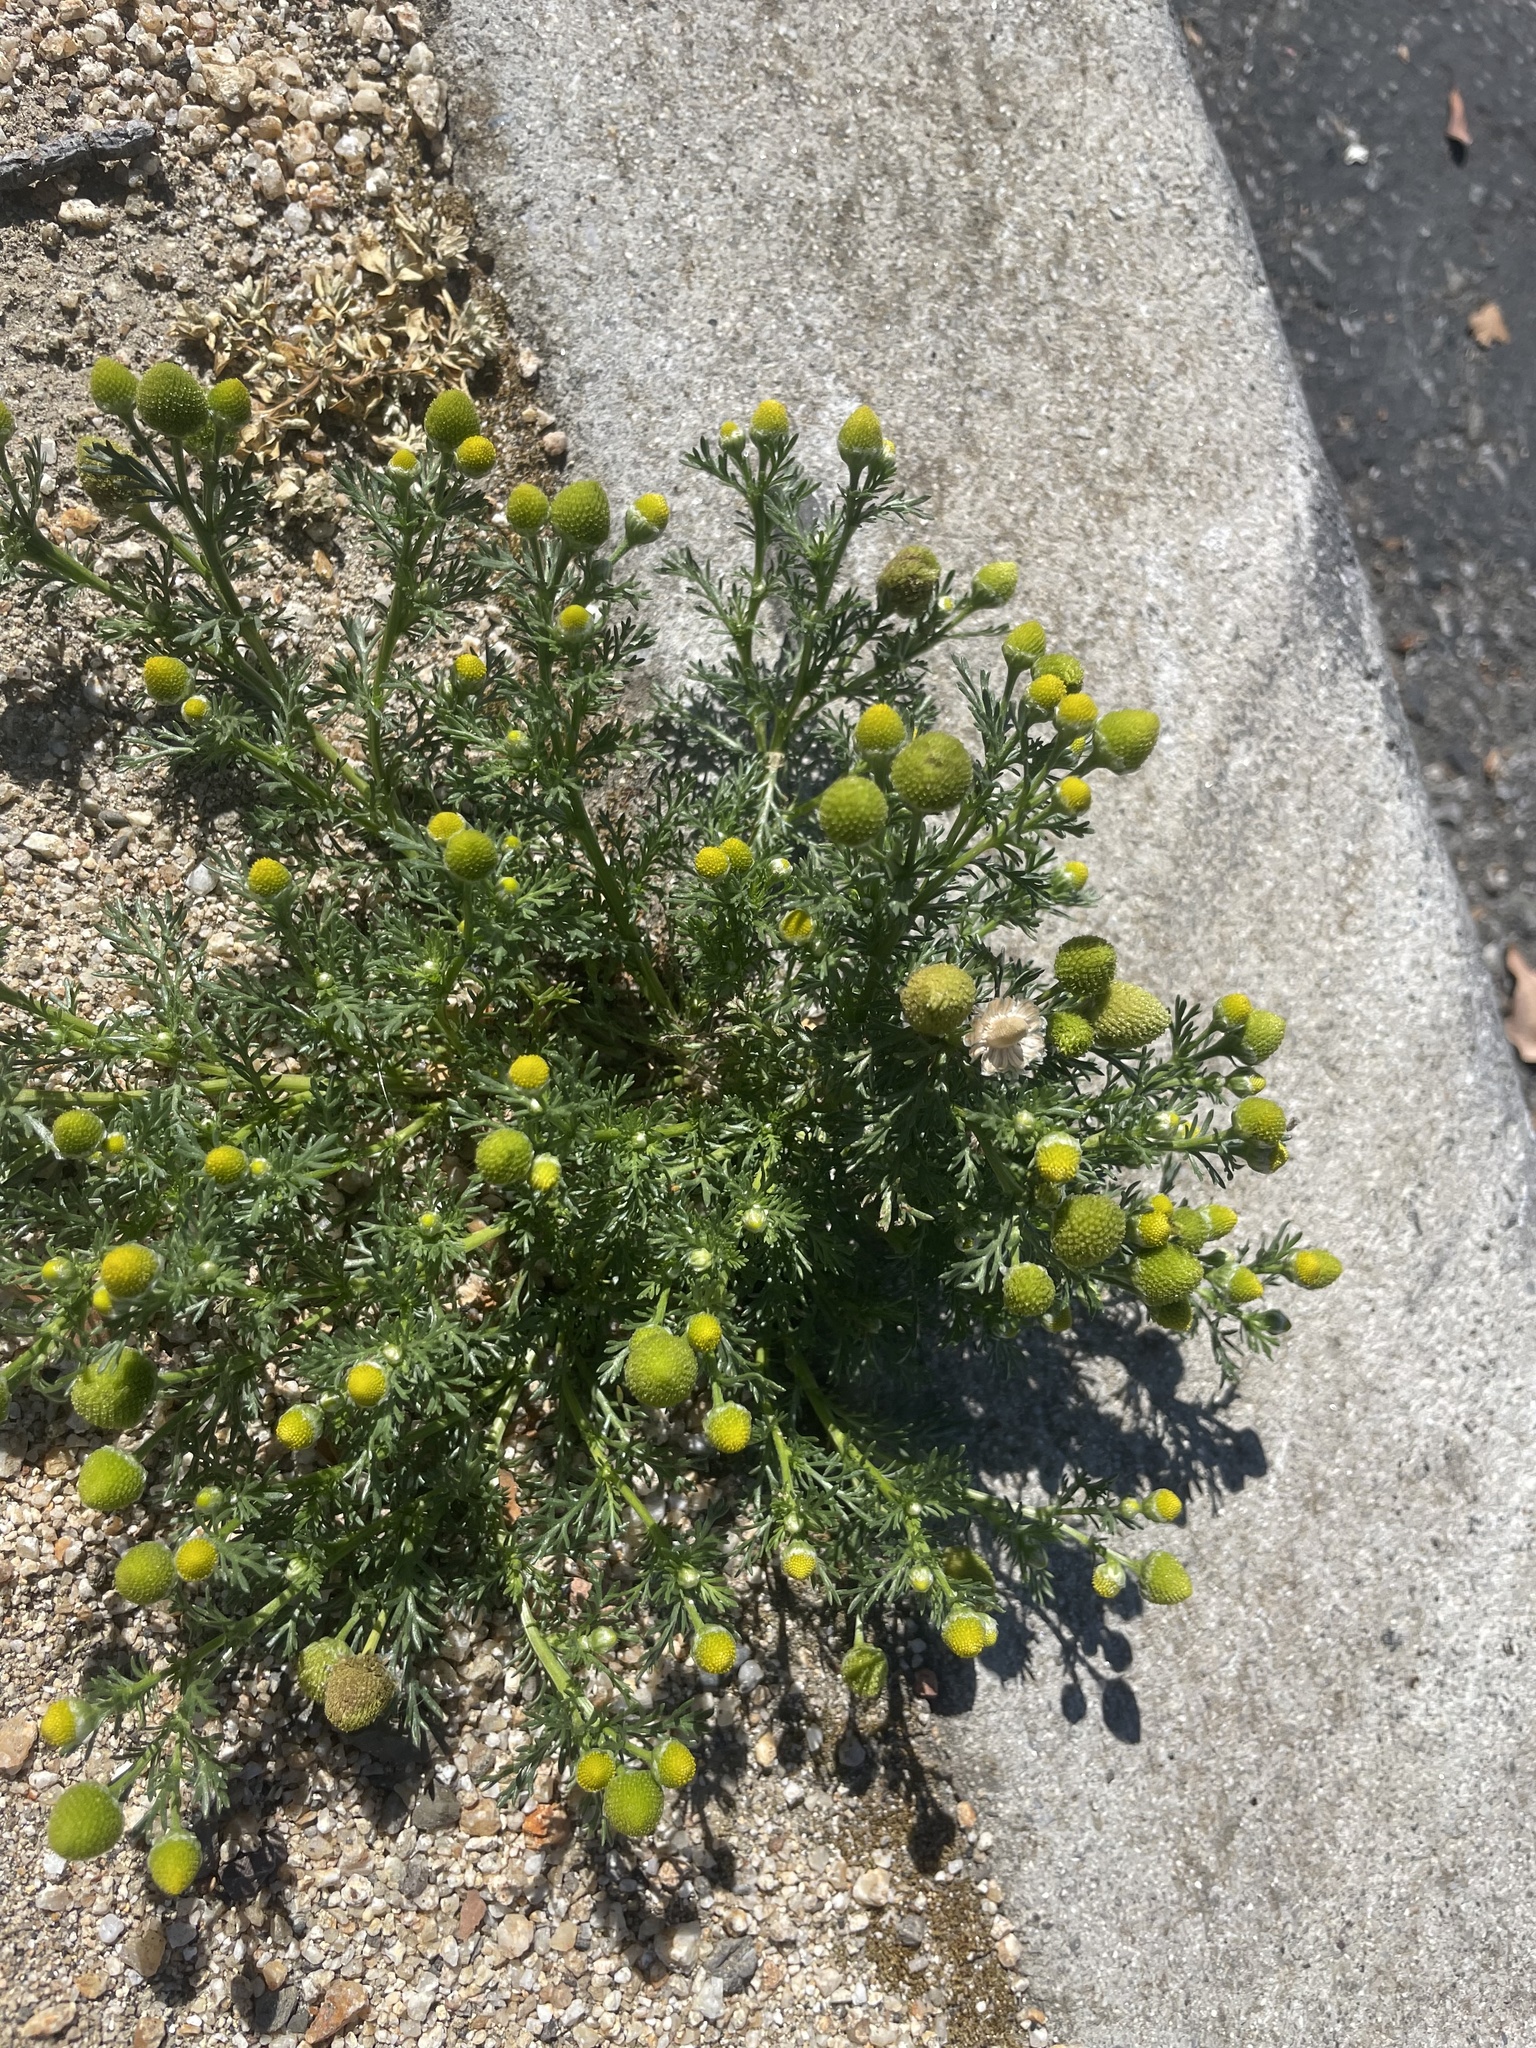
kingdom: Plantae
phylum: Tracheophyta
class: Magnoliopsida
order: Asterales
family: Asteraceae
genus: Matricaria
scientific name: Matricaria discoidea
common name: Disc mayweed
